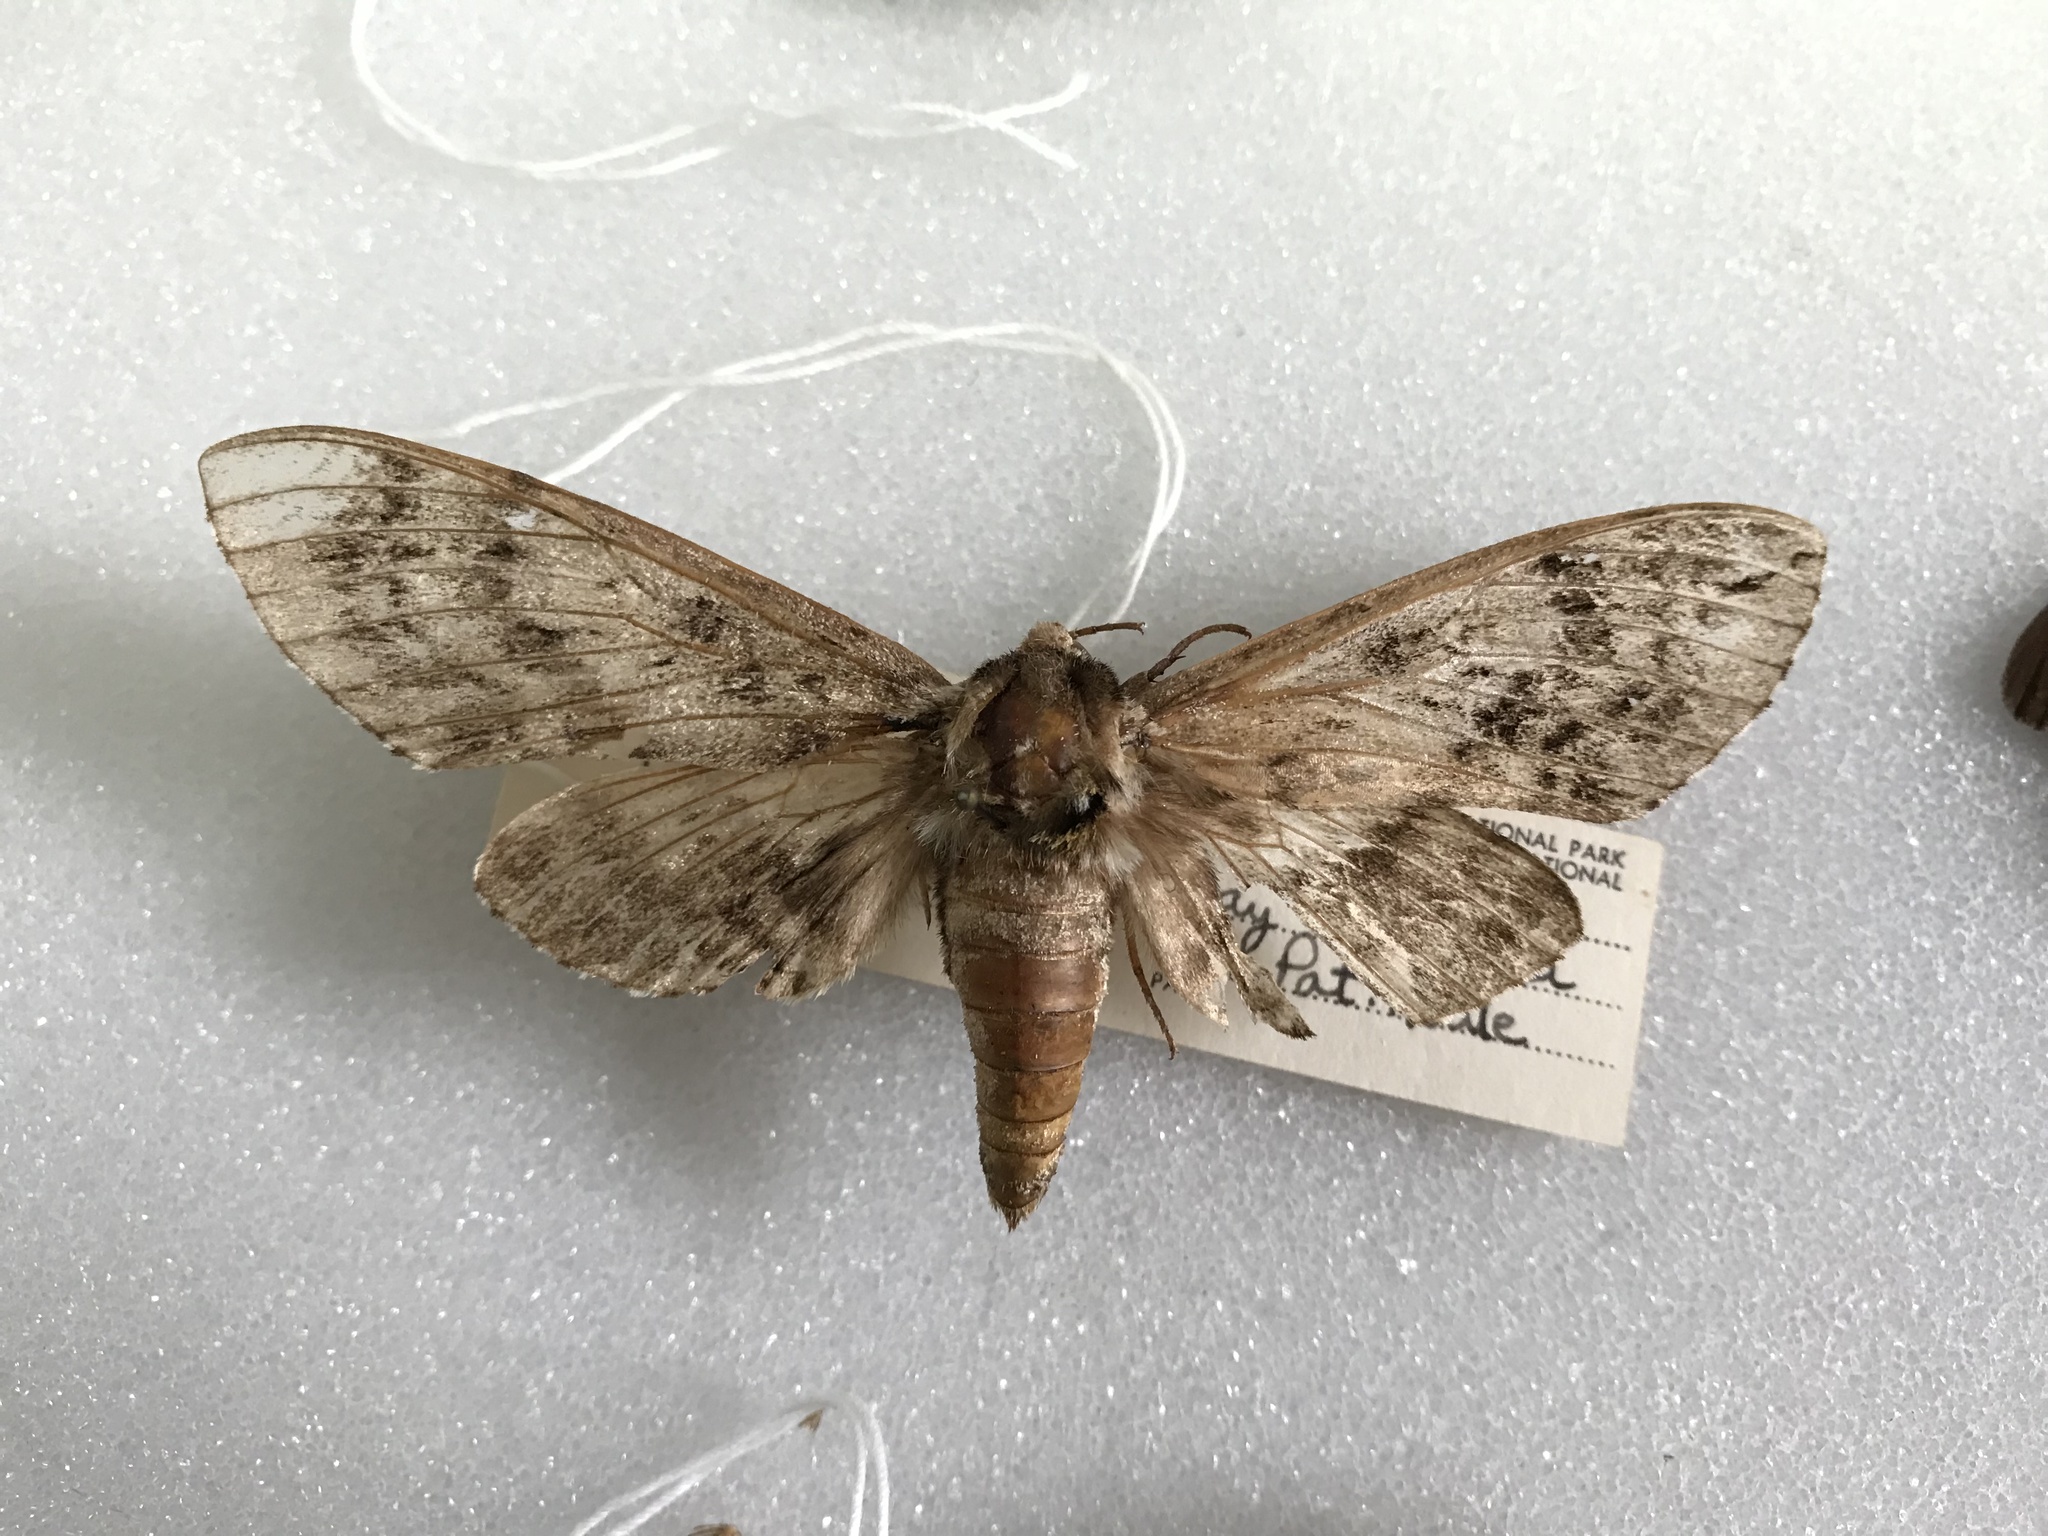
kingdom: Animalia
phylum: Arthropoda
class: Insecta
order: Lepidoptera
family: Sphingidae
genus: Ceratomia
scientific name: Ceratomia undulosa
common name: Waved sphinx
